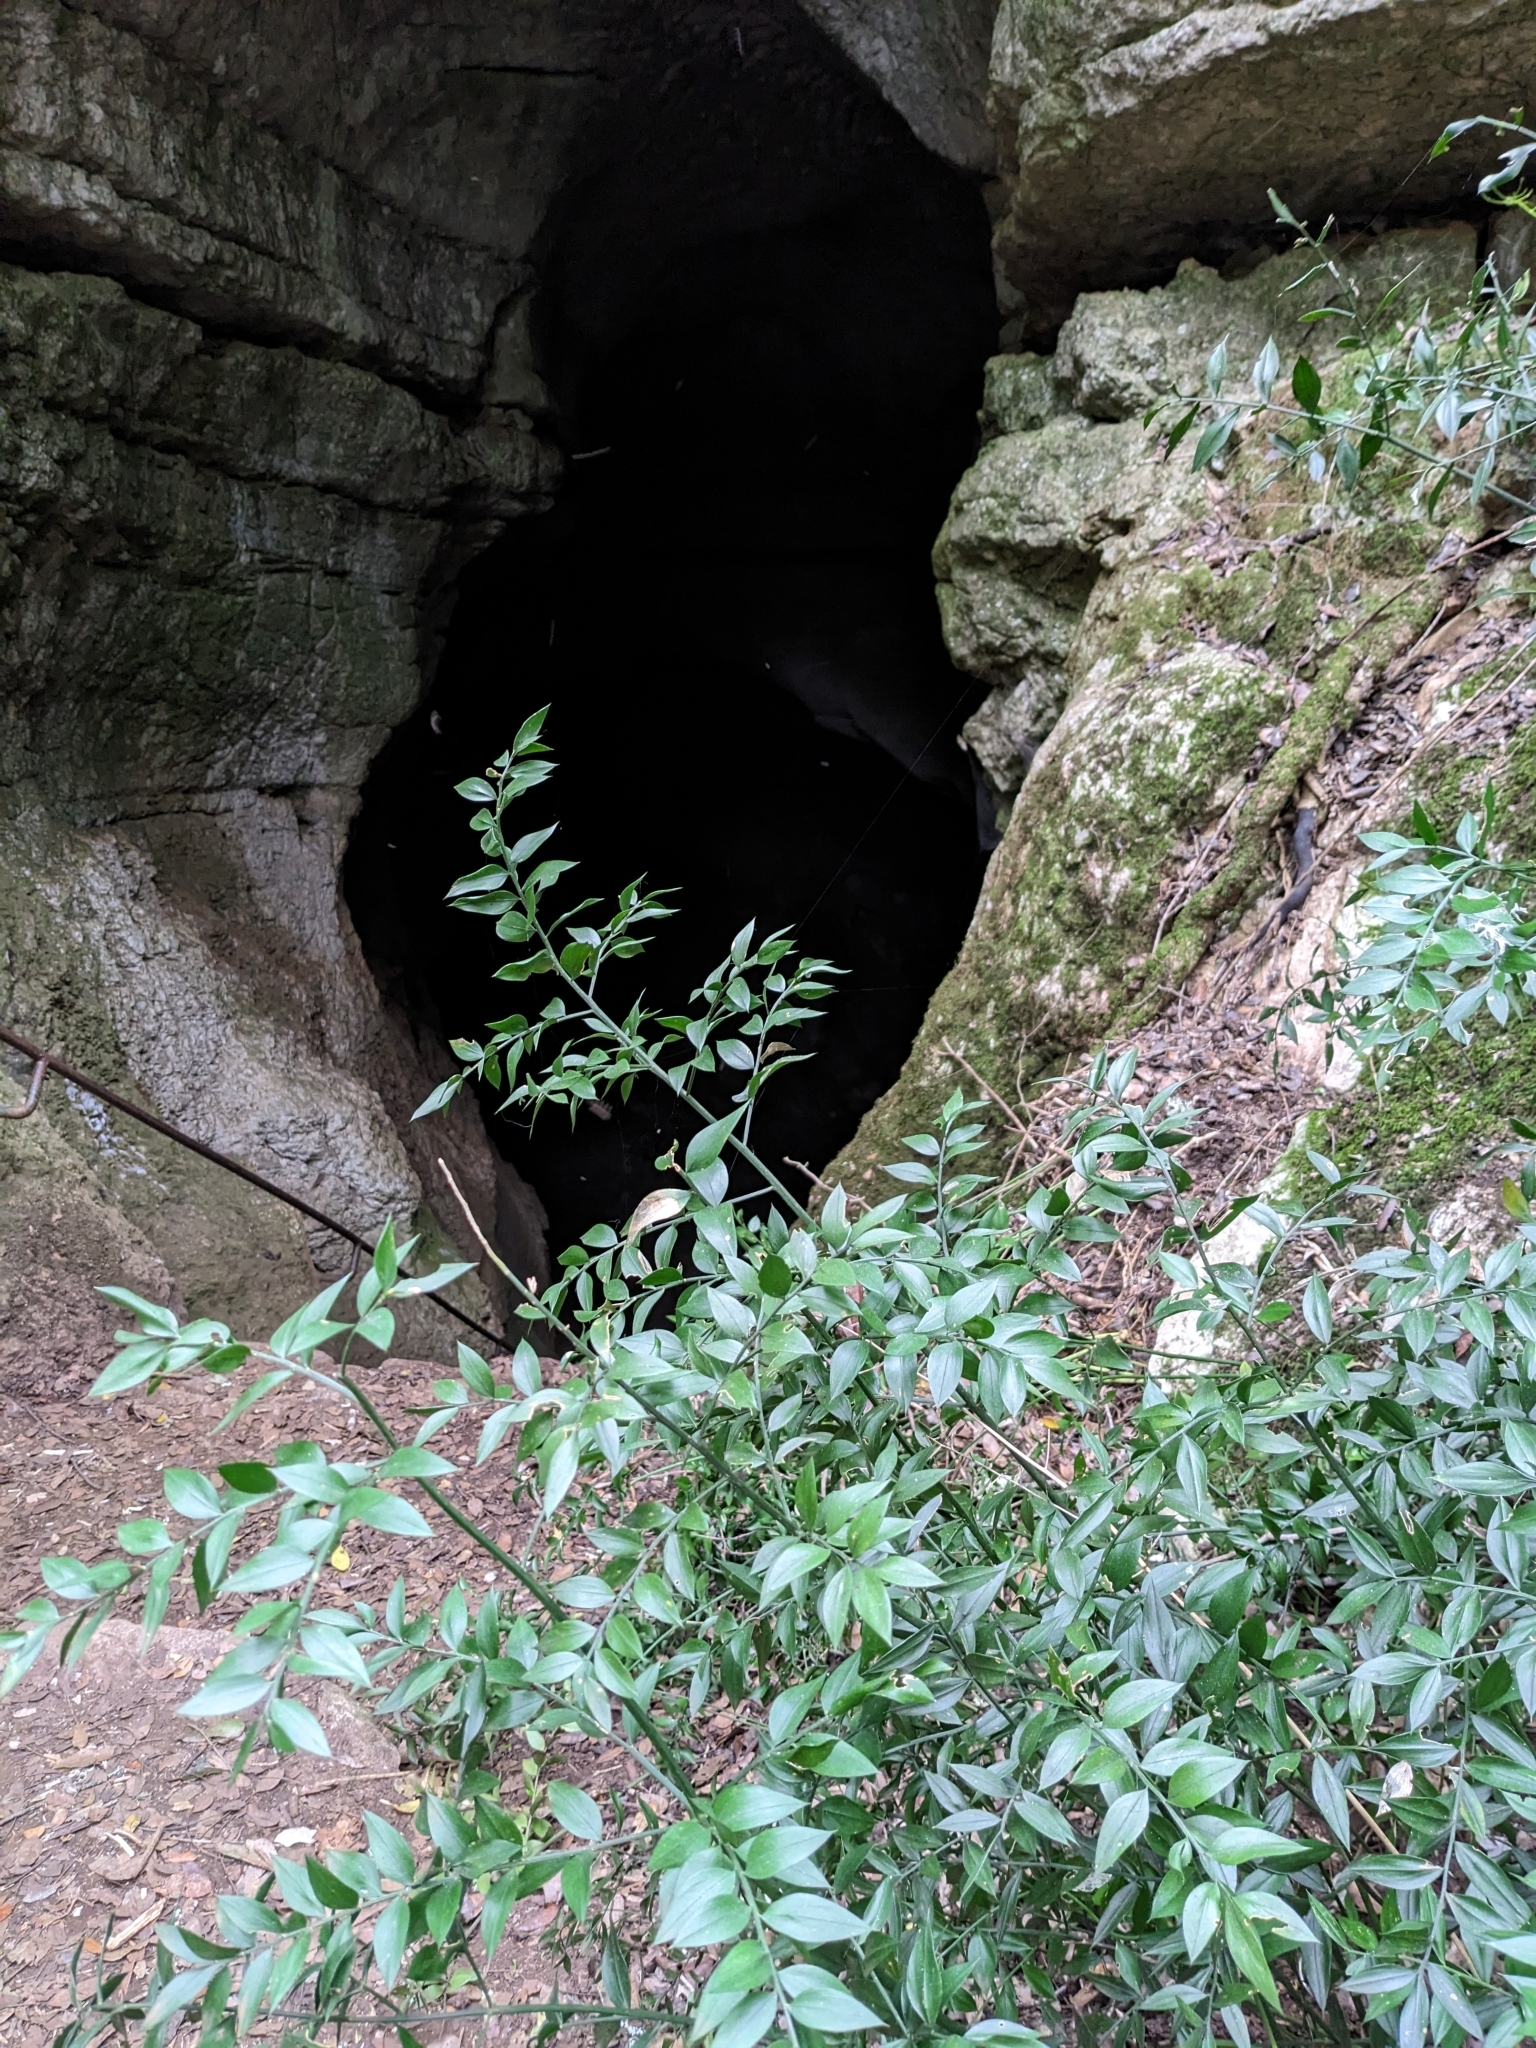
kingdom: Plantae
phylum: Tracheophyta
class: Liliopsida
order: Asparagales
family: Asparagaceae
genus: Ruscus
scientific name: Ruscus aculeatus
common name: Butcher's-broom
